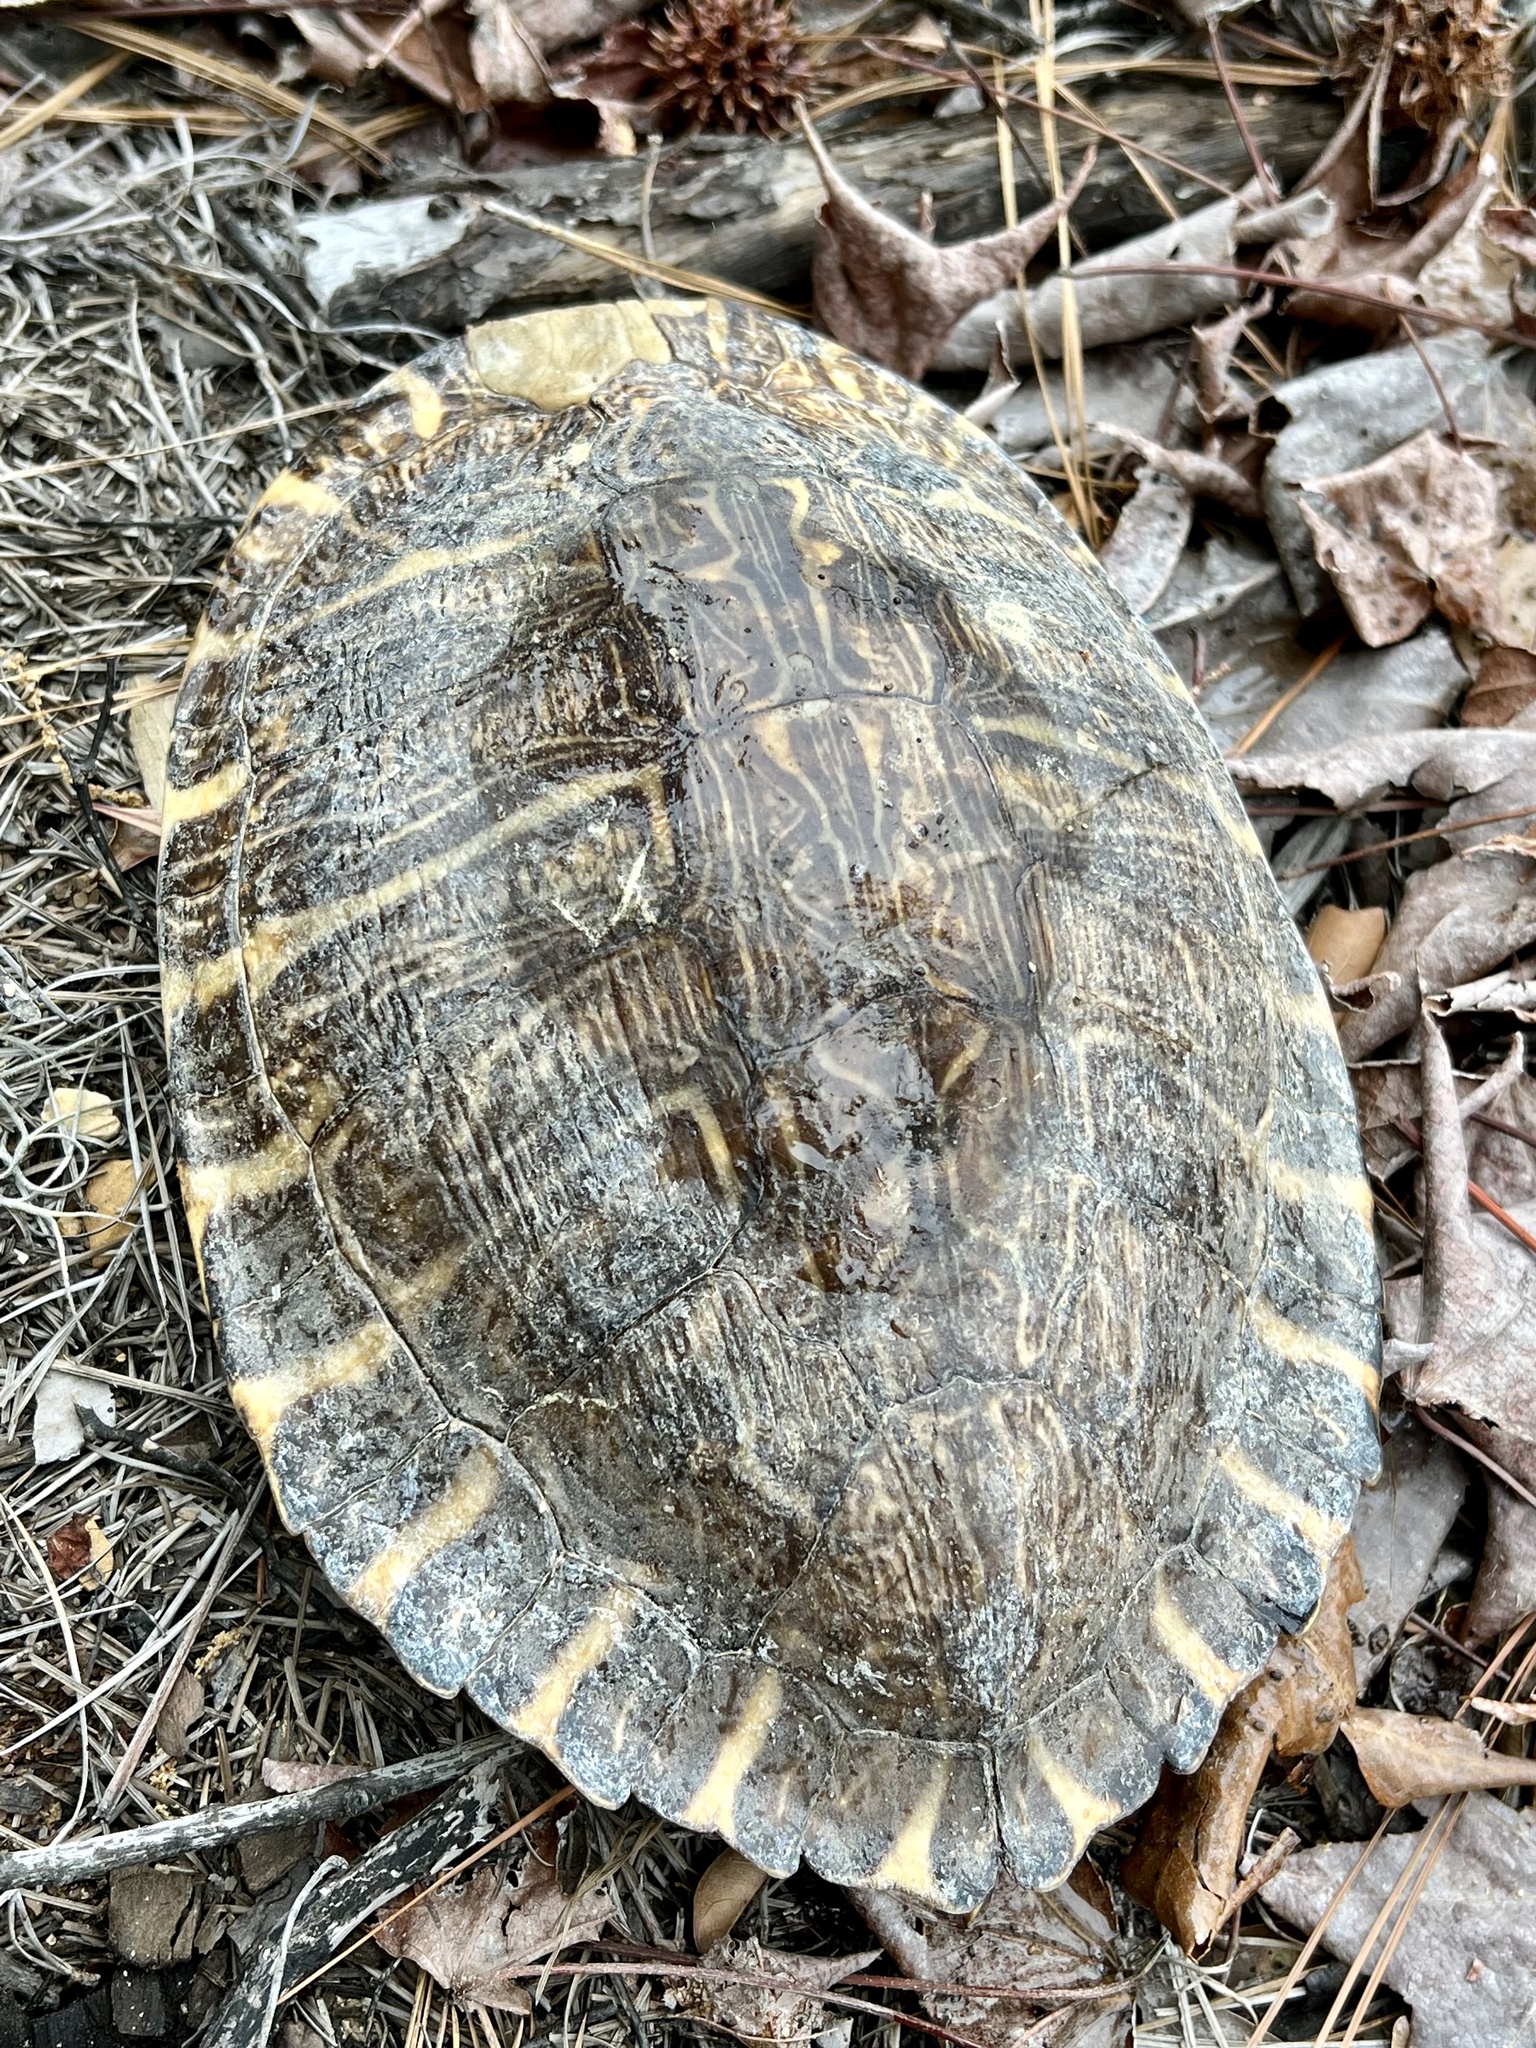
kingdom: Animalia
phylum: Chordata
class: Testudines
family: Emydidae
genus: Pseudemys
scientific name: Pseudemys concinna
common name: Eastern river cooter
